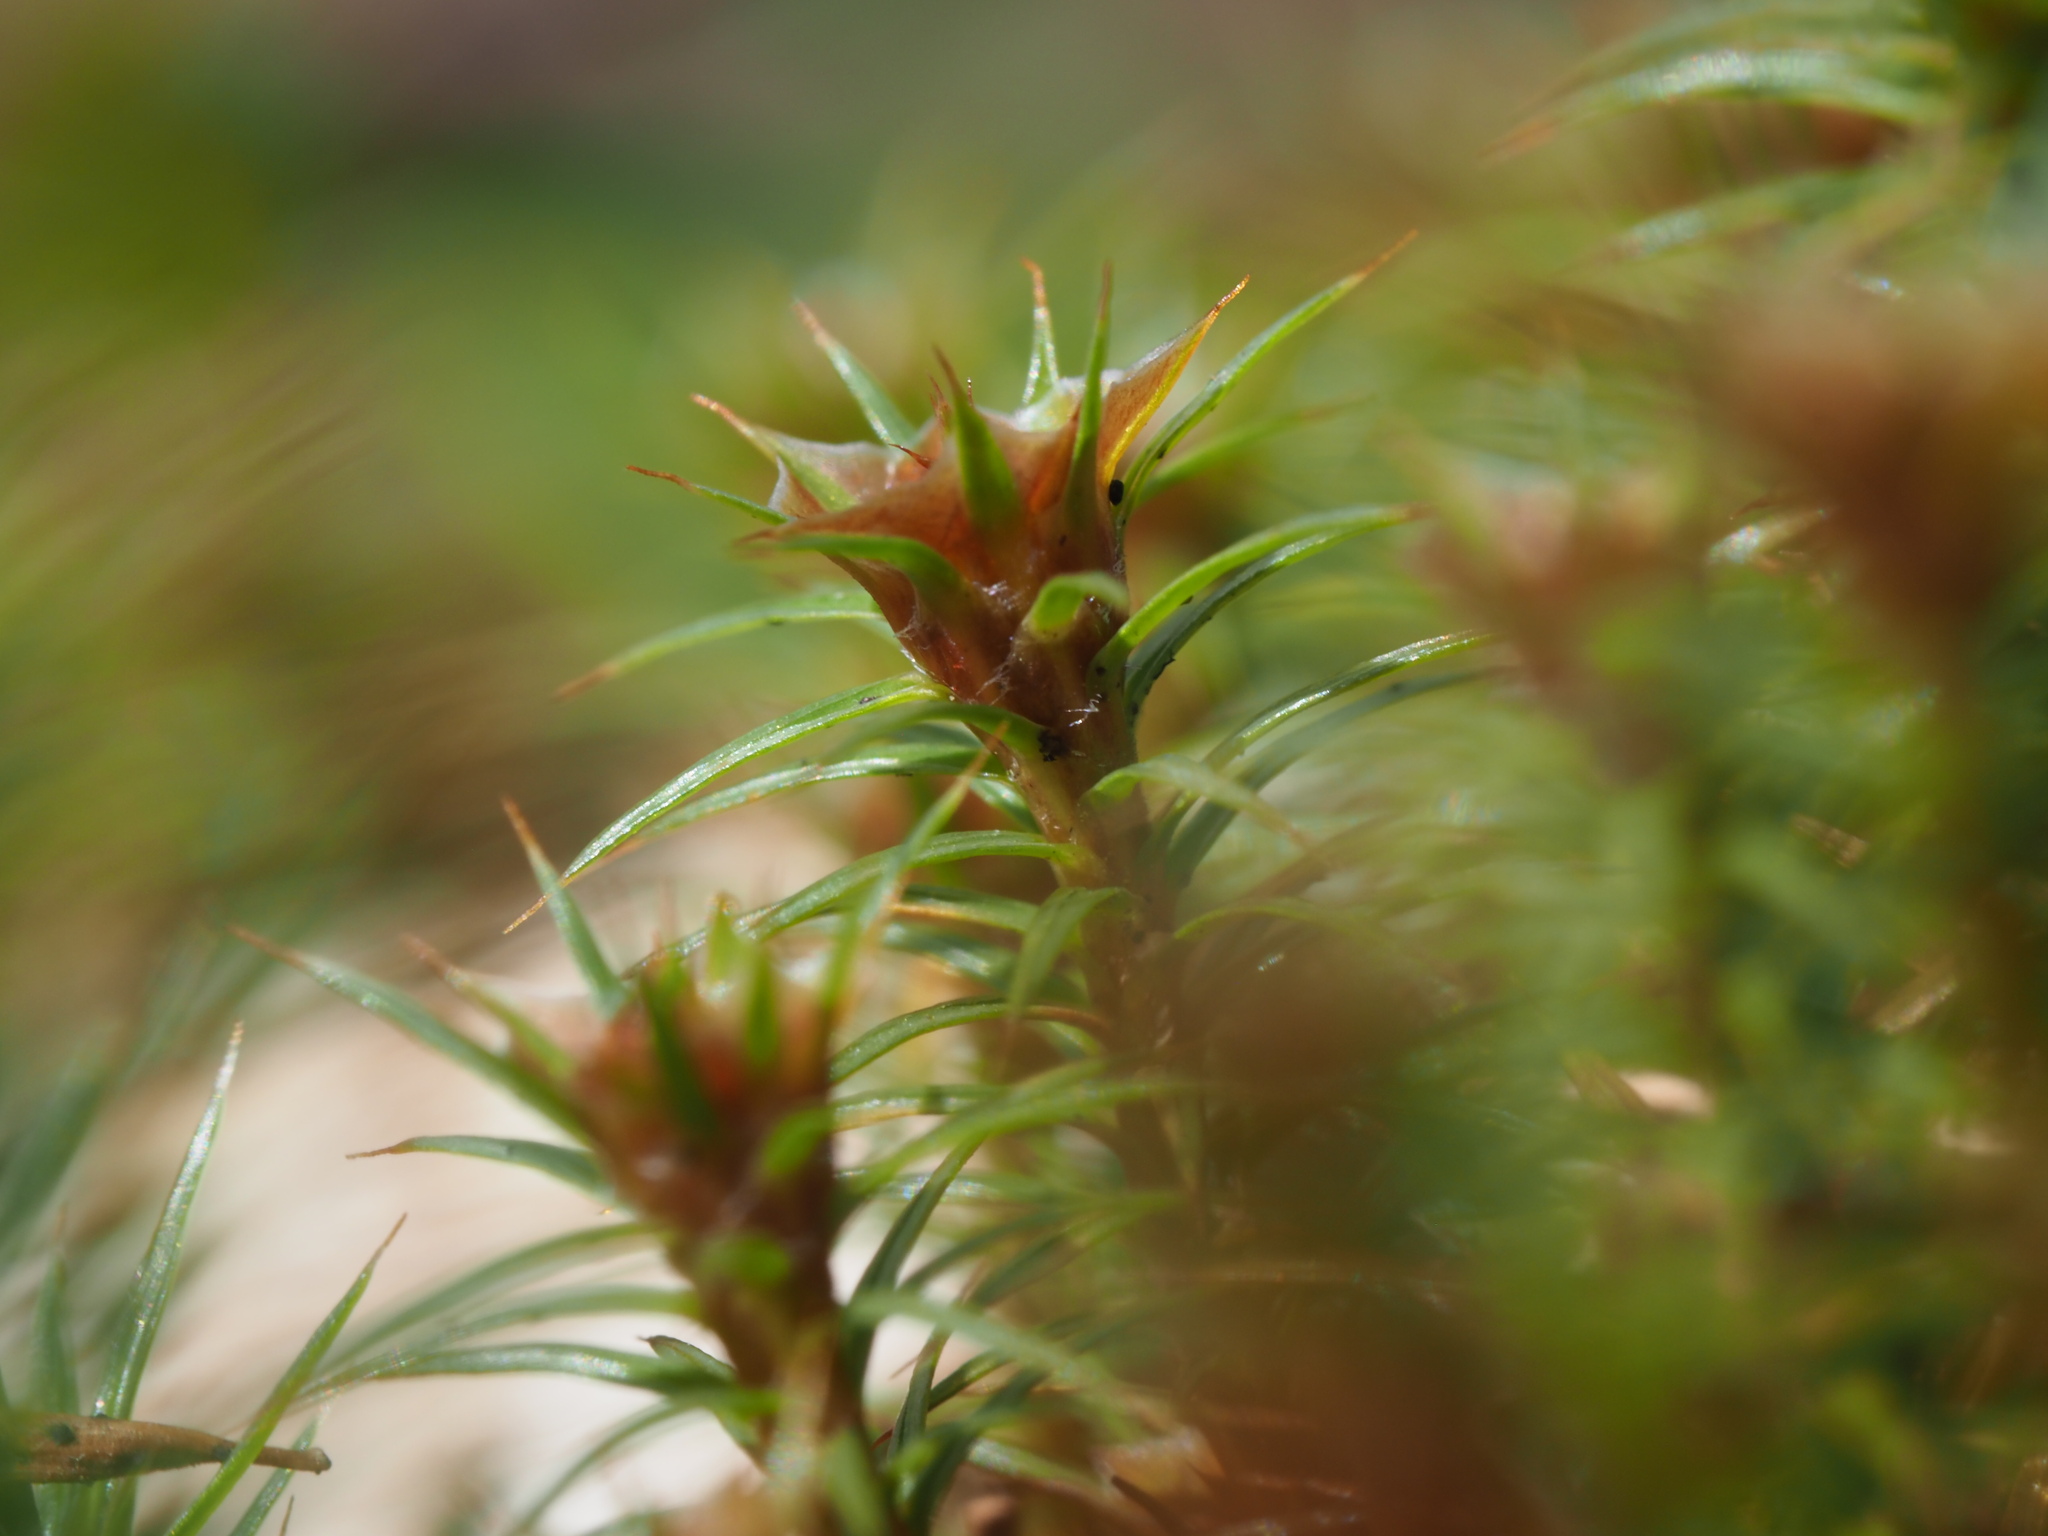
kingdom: Plantae
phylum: Bryophyta
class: Polytrichopsida
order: Polytrichales
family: Polytrichaceae
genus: Polytrichum
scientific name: Polytrichum juniperinum
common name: Juniper haircap moss
